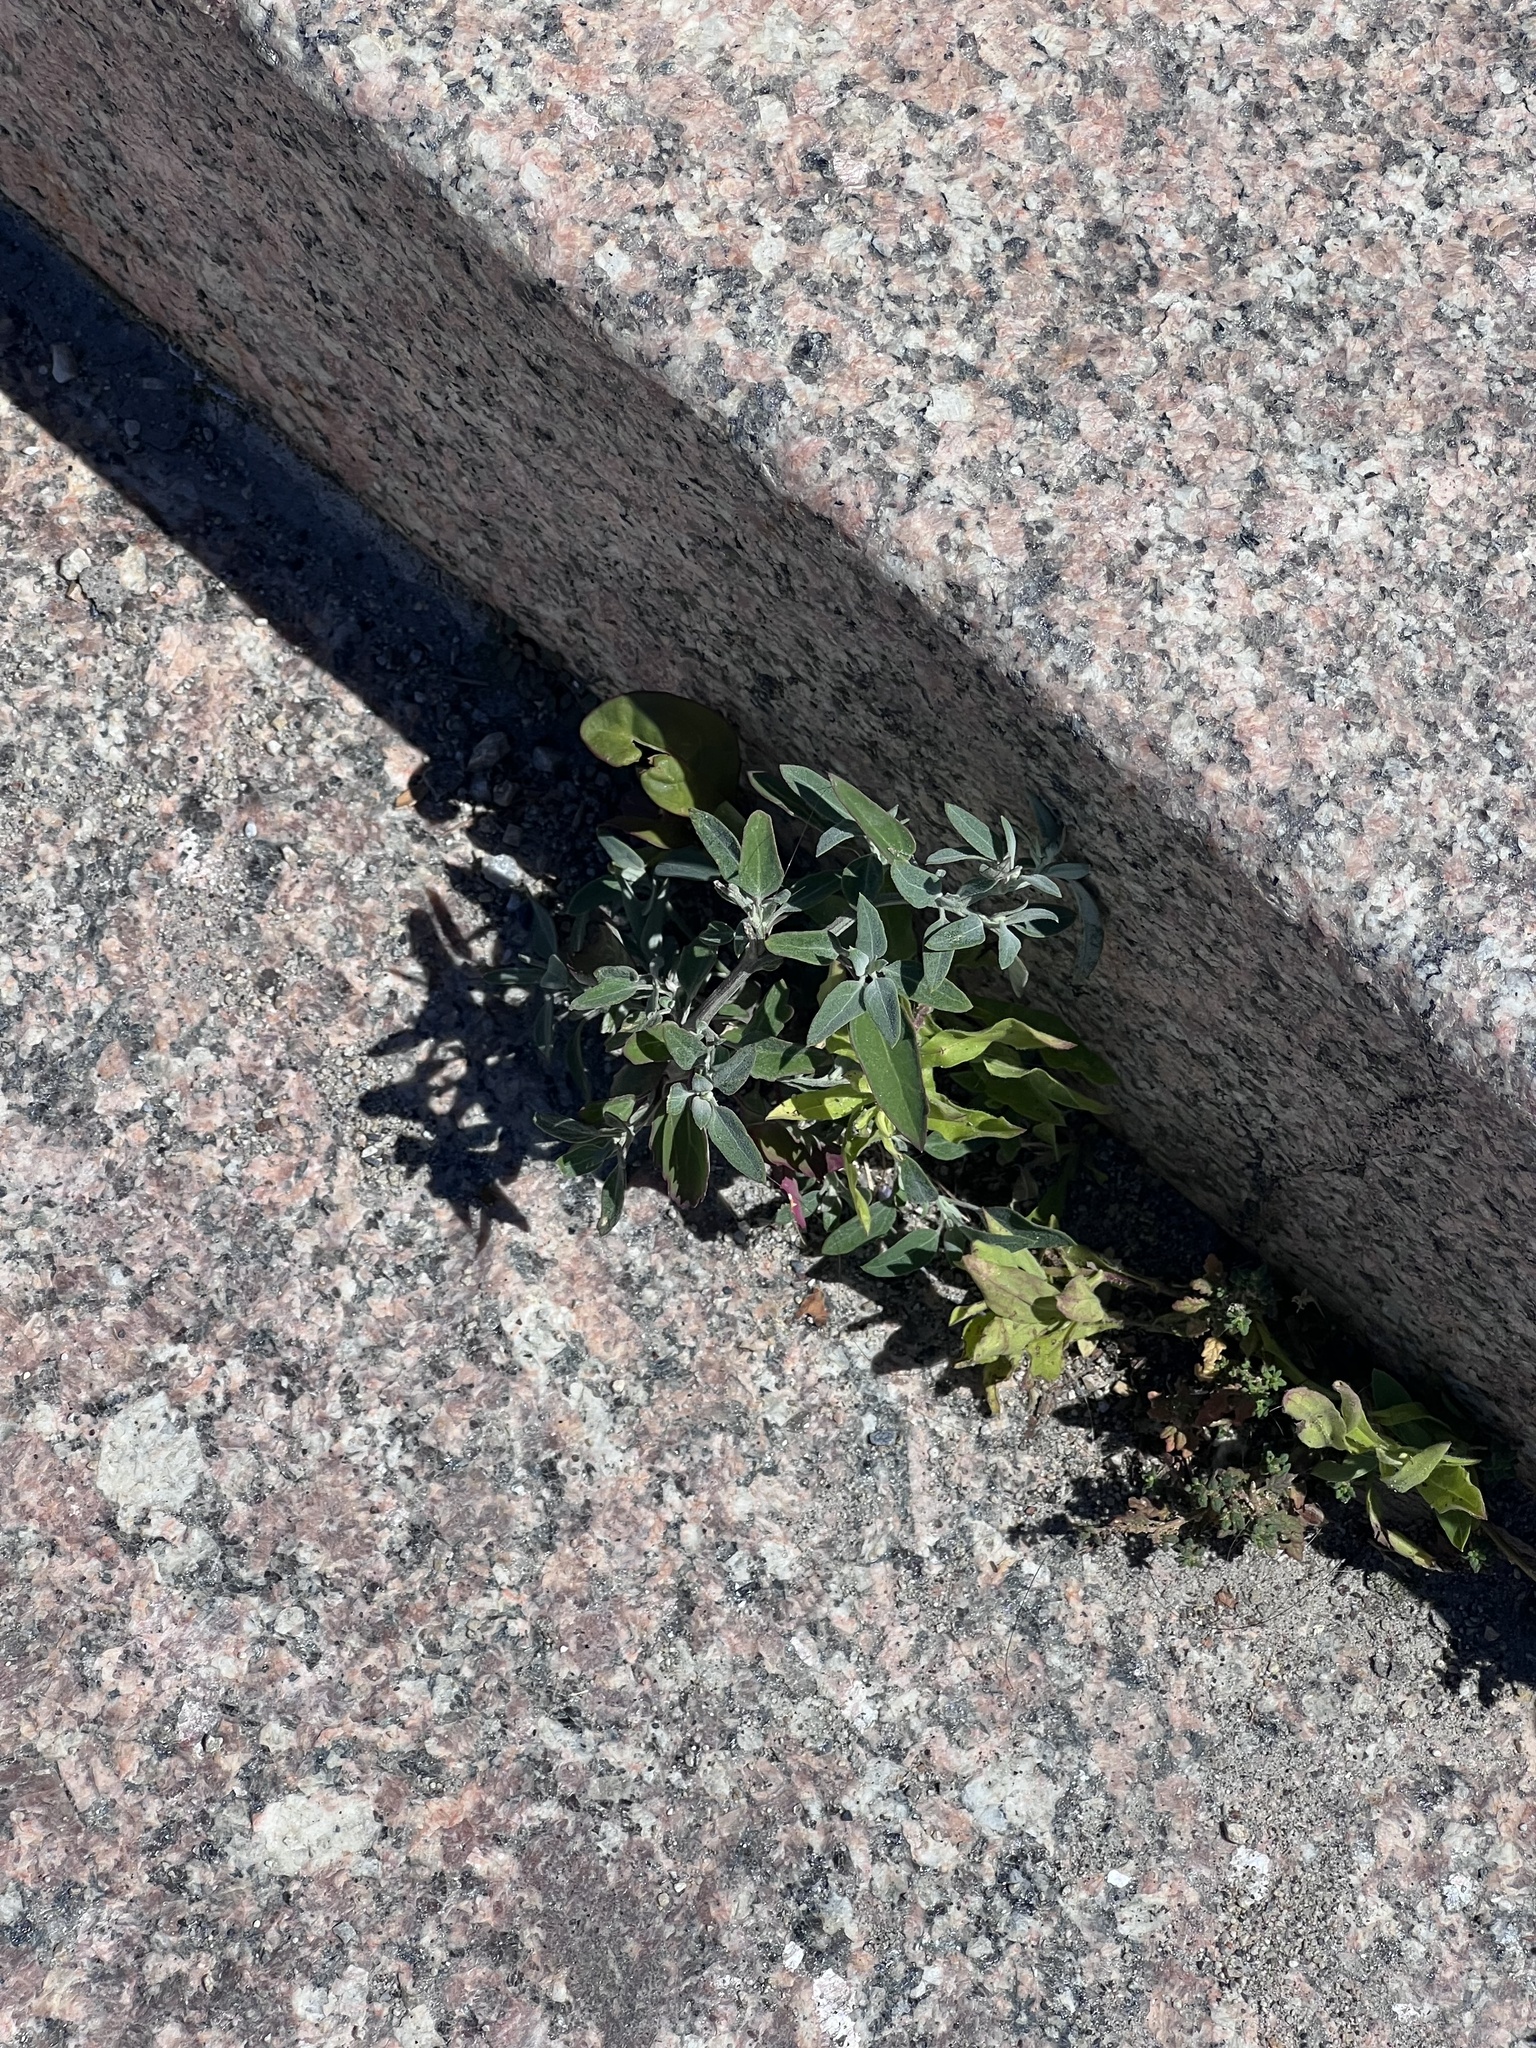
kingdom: Plantae
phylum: Tracheophyta
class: Magnoliopsida
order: Caryophyllales
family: Amaranthaceae
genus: Chenopodium
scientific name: Chenopodium album
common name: Fat-hen
